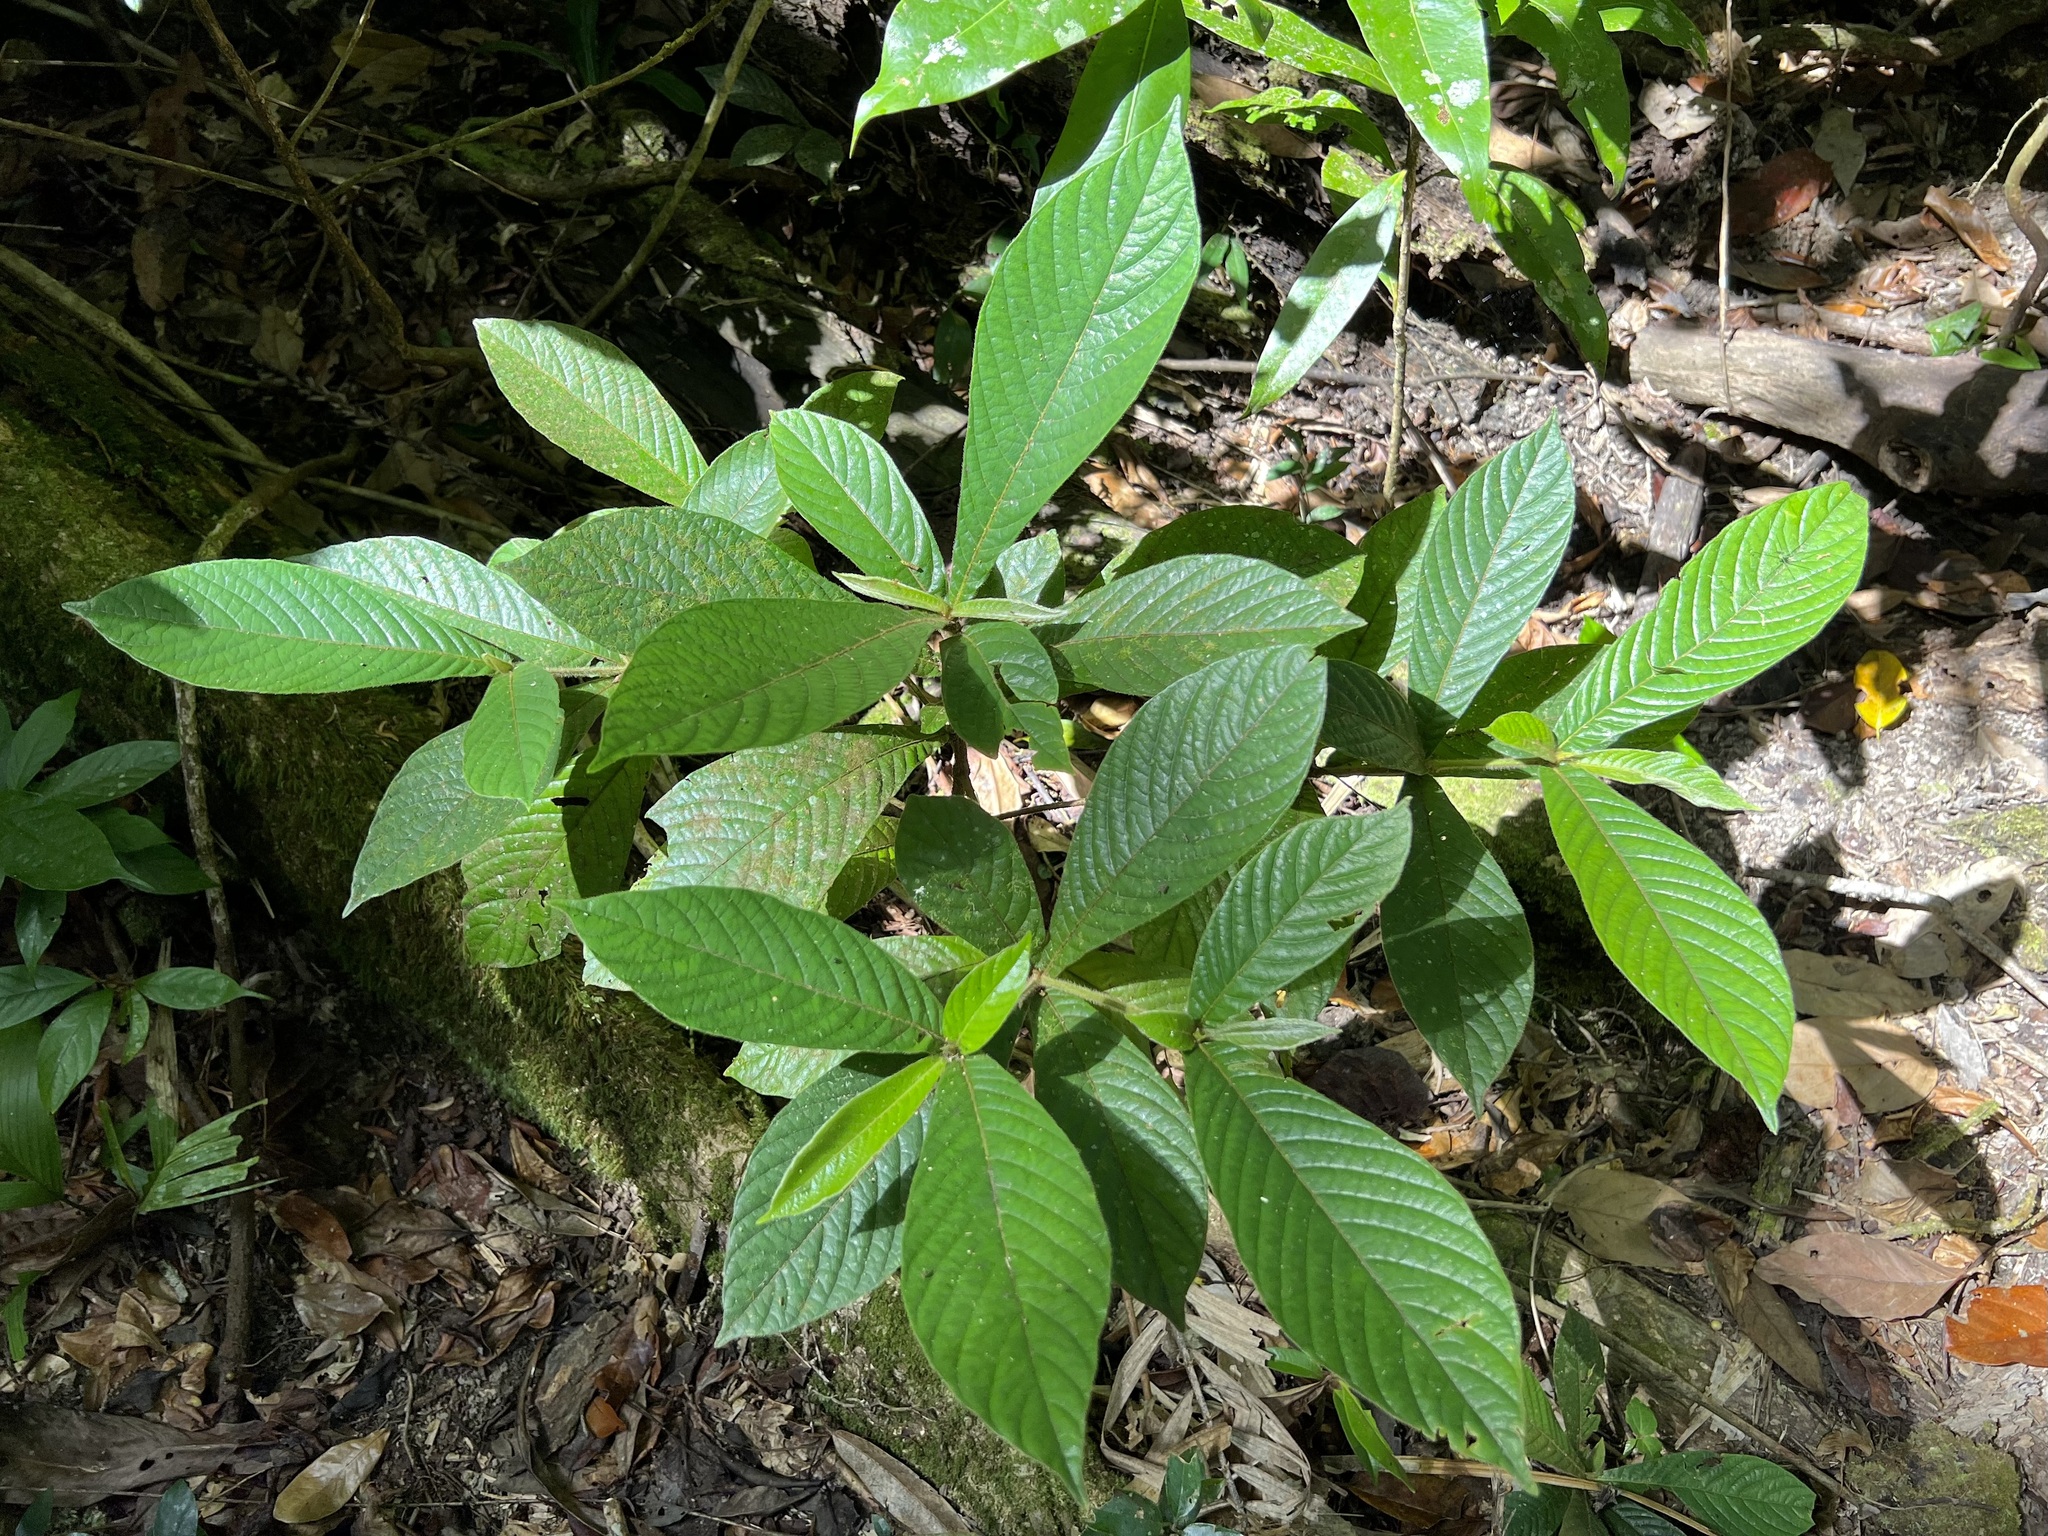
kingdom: Plantae
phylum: Tracheophyta
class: Magnoliopsida
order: Gentianales
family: Rubiaceae
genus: Atractocarpus
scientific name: Atractocarpus hirtus
